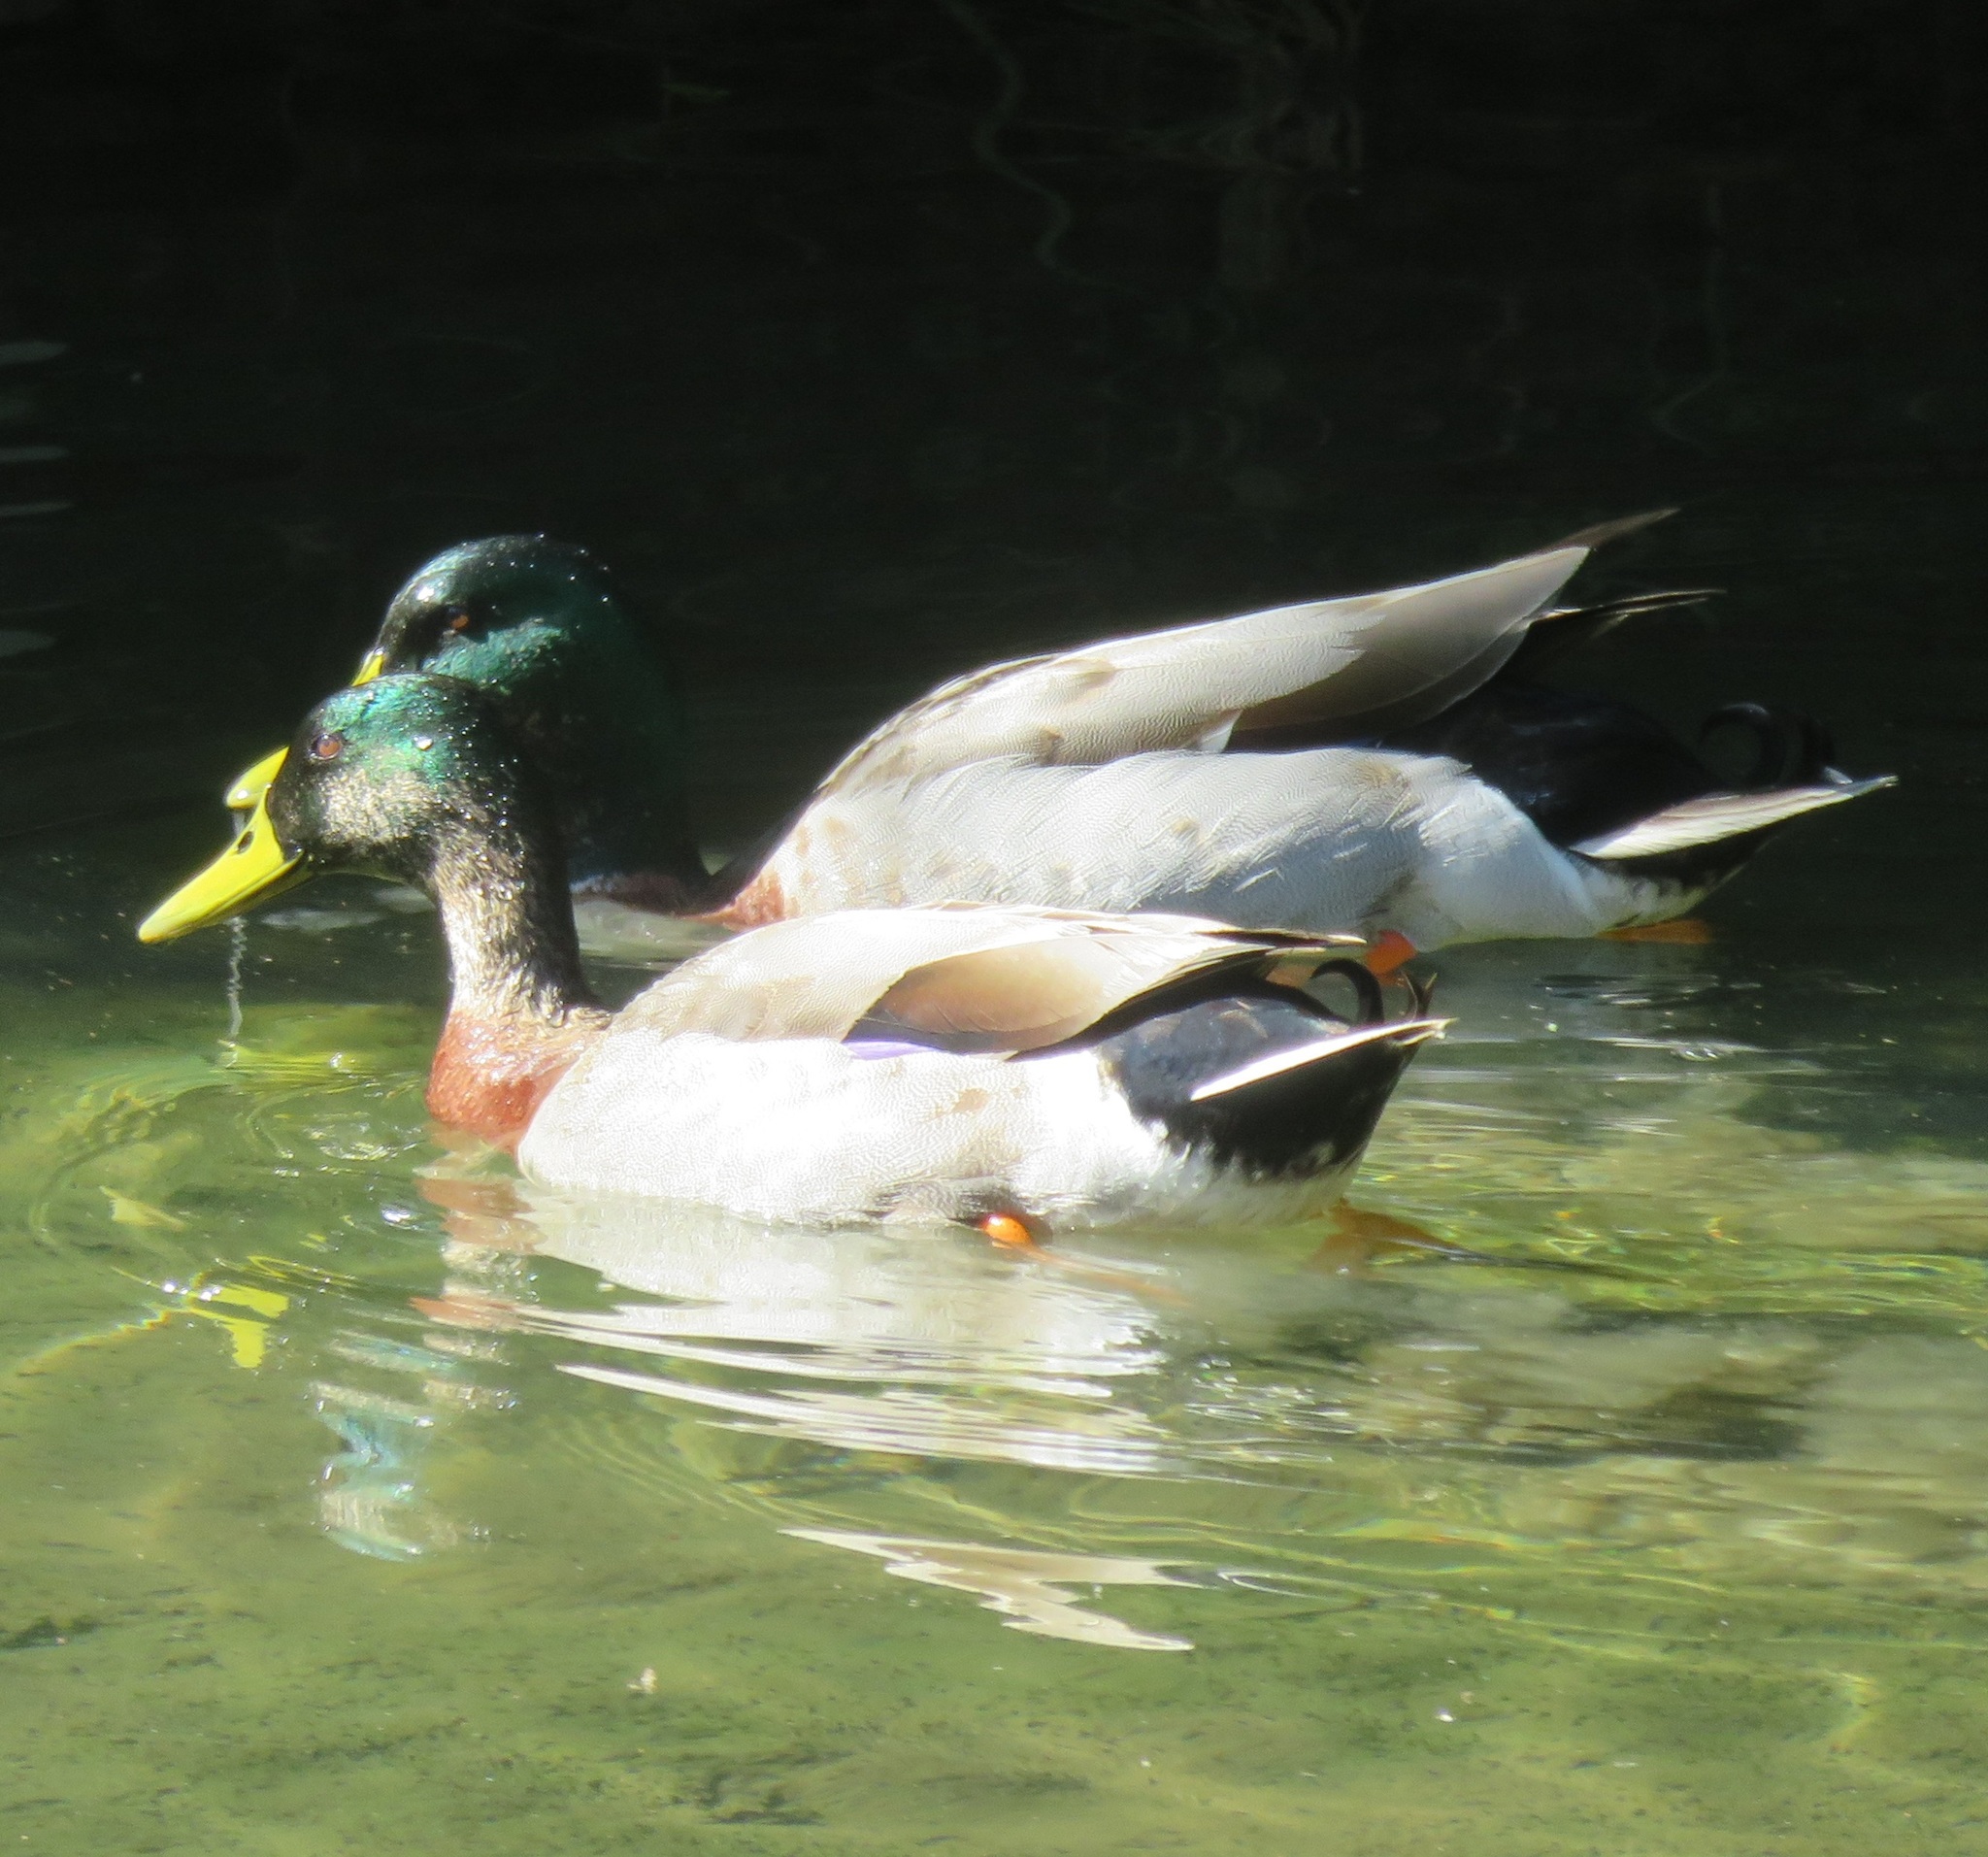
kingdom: Animalia
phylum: Chordata
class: Aves
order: Anseriformes
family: Anatidae
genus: Anas
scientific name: Anas platyrhynchos
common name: Mallard
